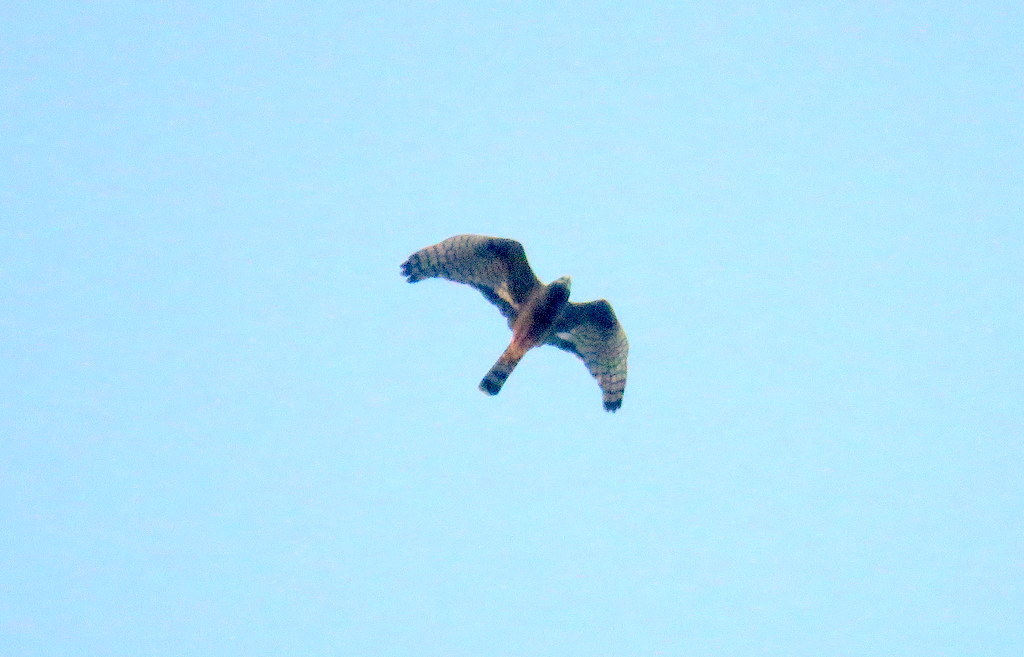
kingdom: Animalia
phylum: Chordata
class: Aves
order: Accipitriformes
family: Accipitridae
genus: Circus
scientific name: Circus buffoni
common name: Long-winged harrier
